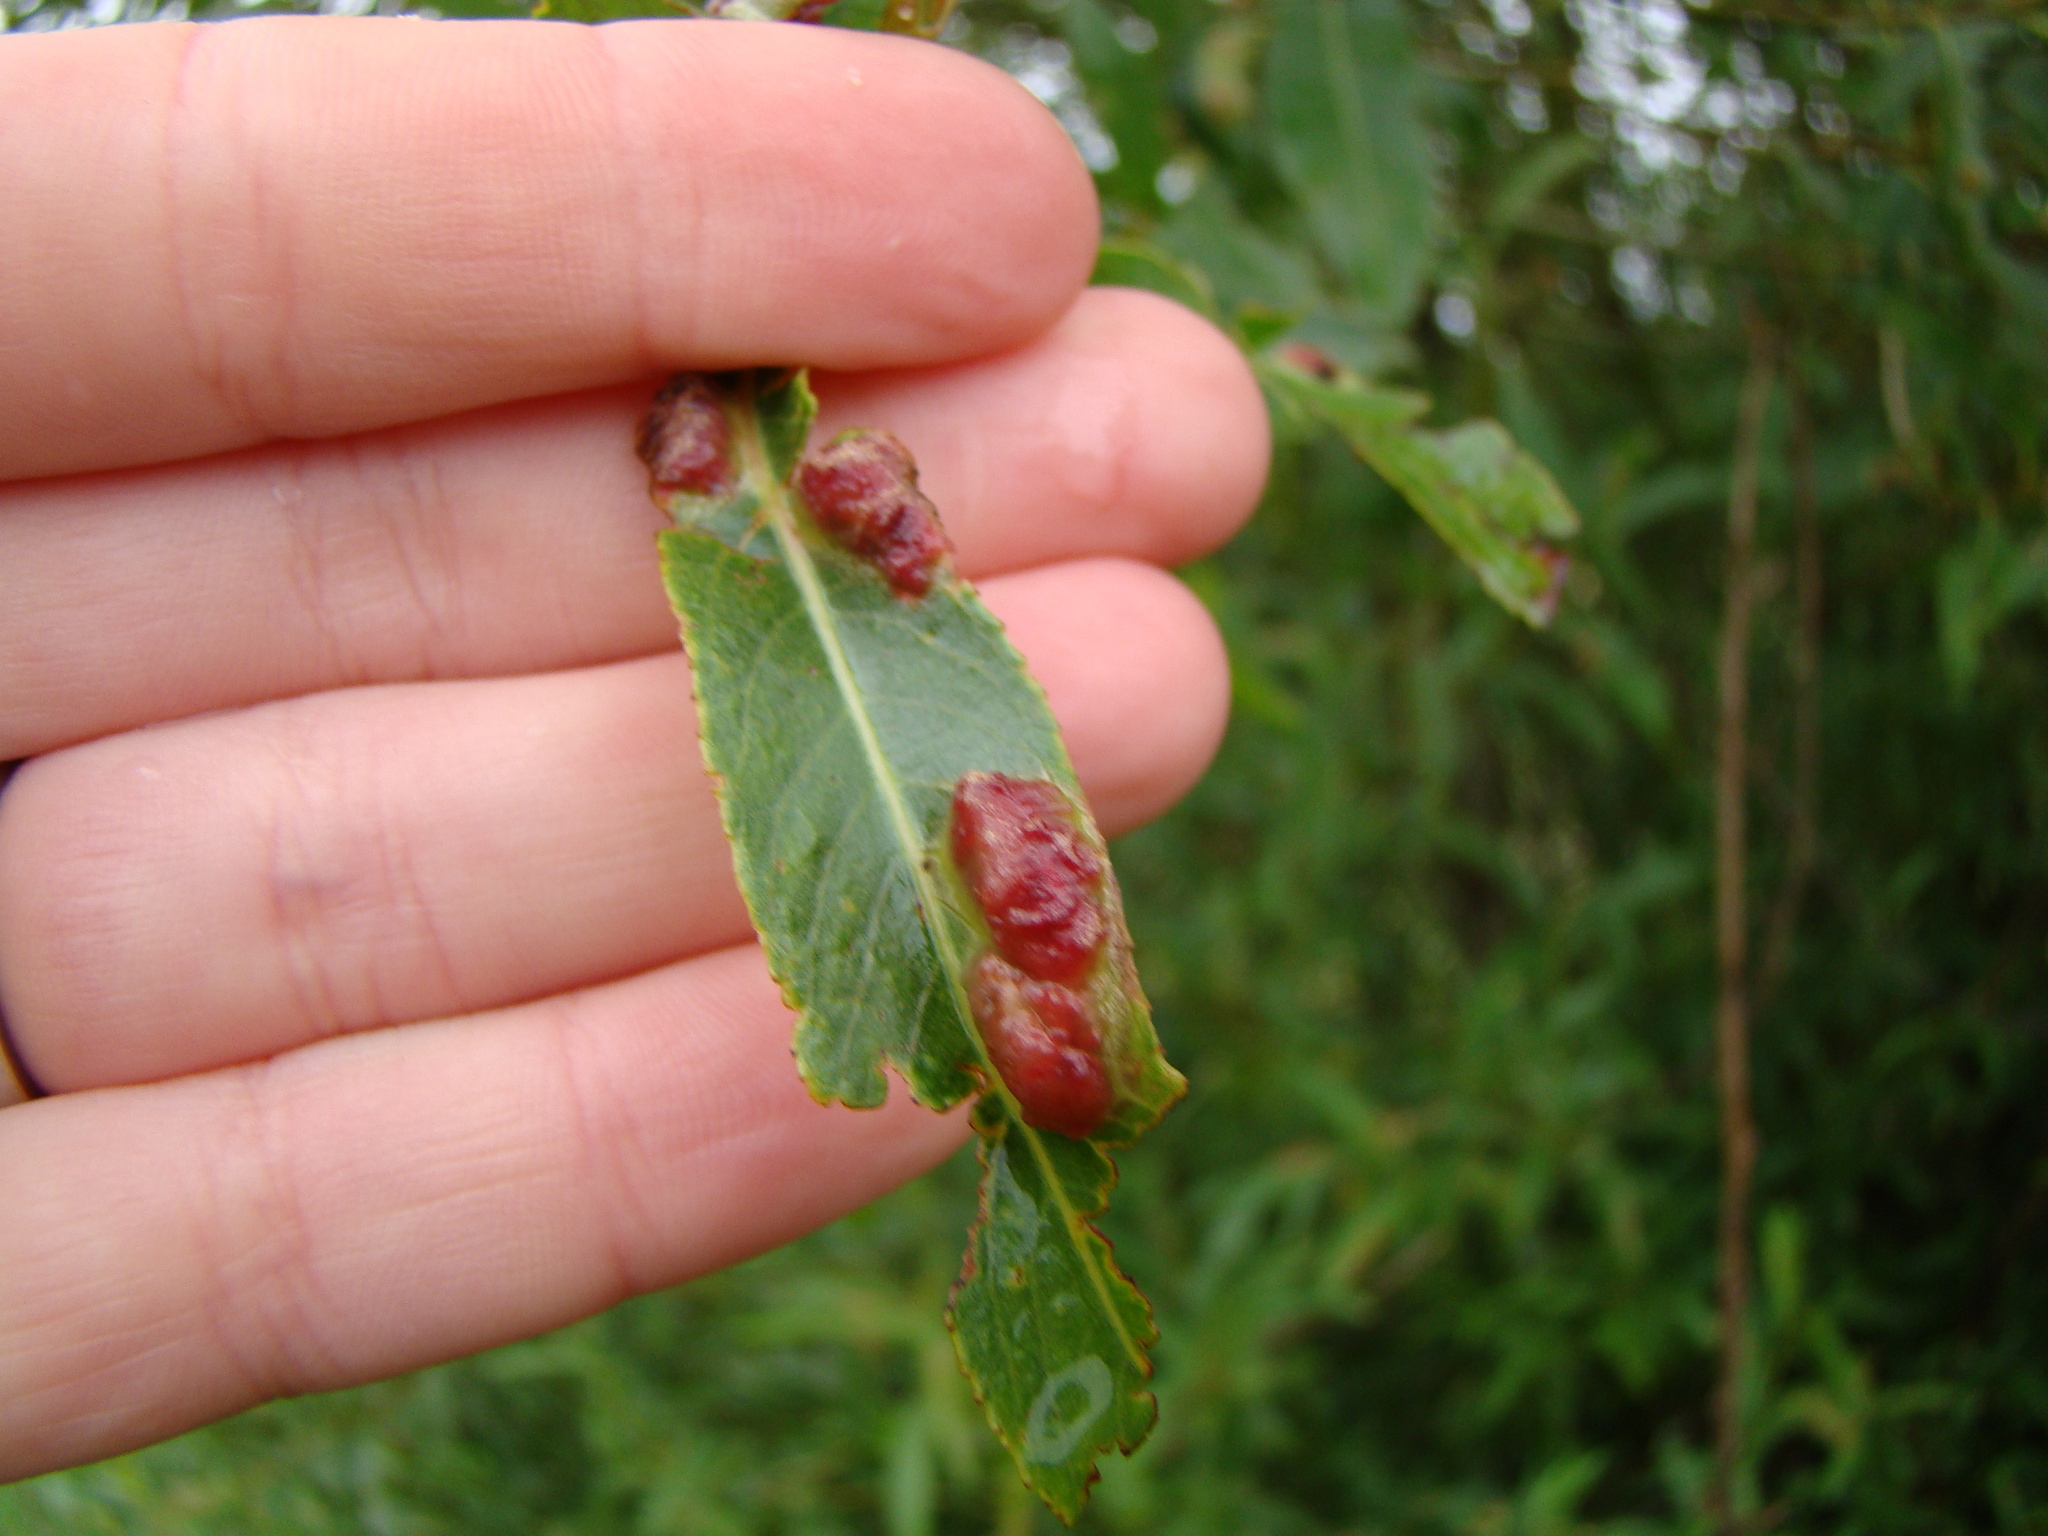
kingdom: Animalia
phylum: Arthropoda
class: Insecta
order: Hymenoptera
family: Tenthredinidae
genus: Pontania
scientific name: Pontania proxima
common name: Common sawfly
